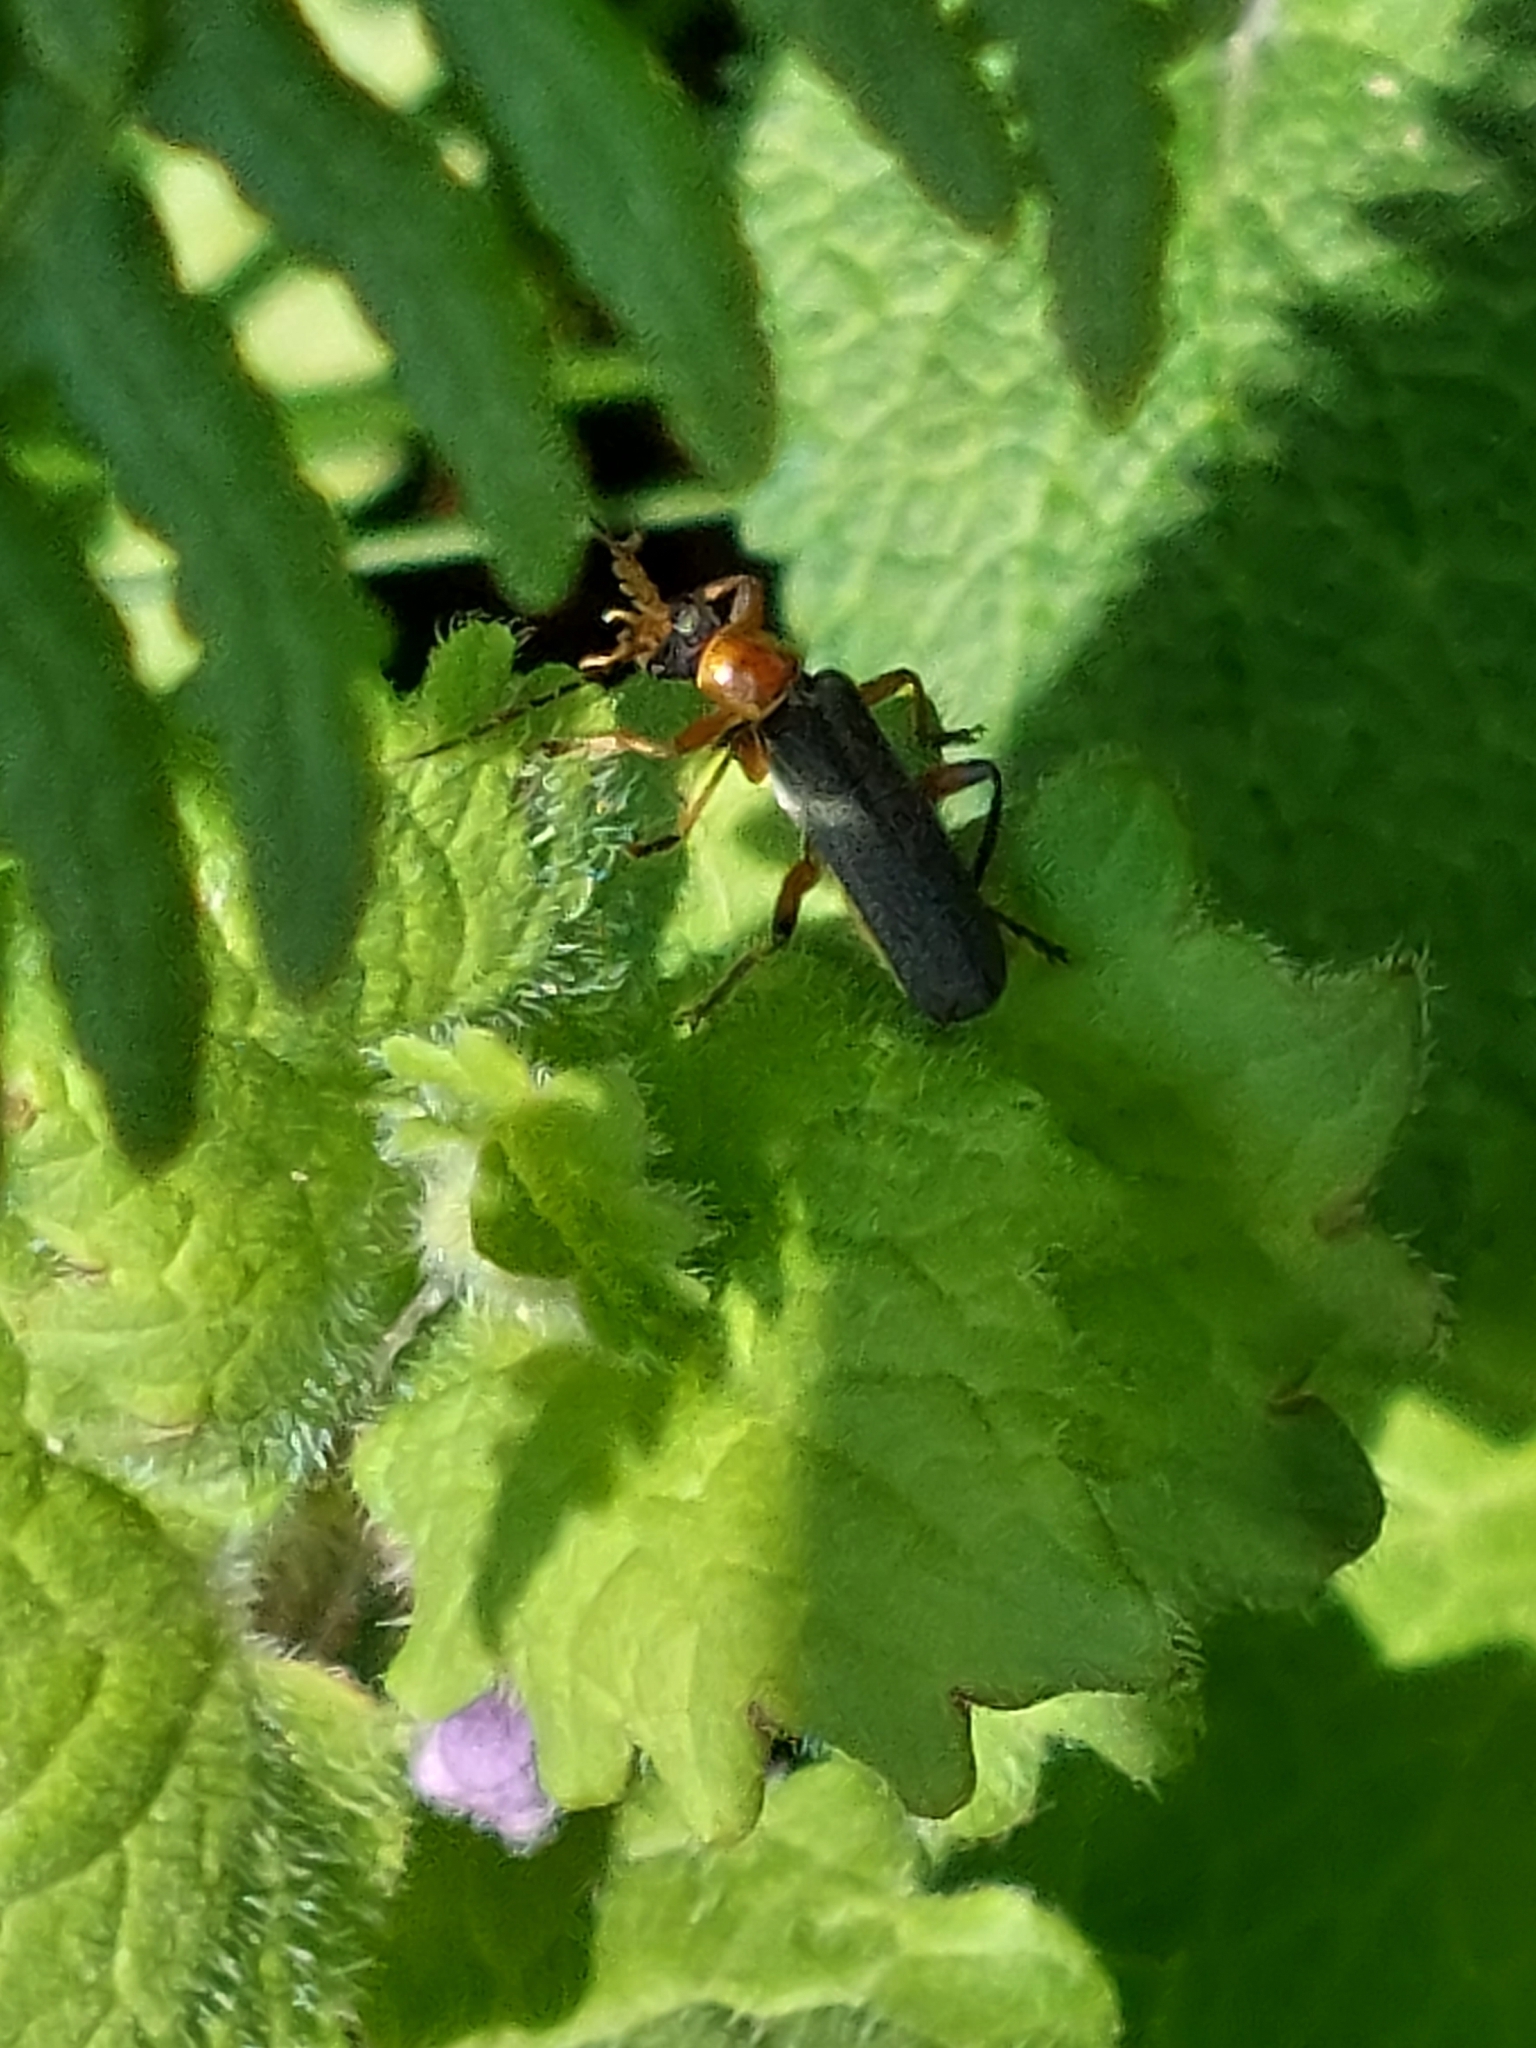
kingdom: Animalia
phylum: Arthropoda
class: Insecta
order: Coleoptera
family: Cantharidae
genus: Cantharis
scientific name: Cantharis nigricans
